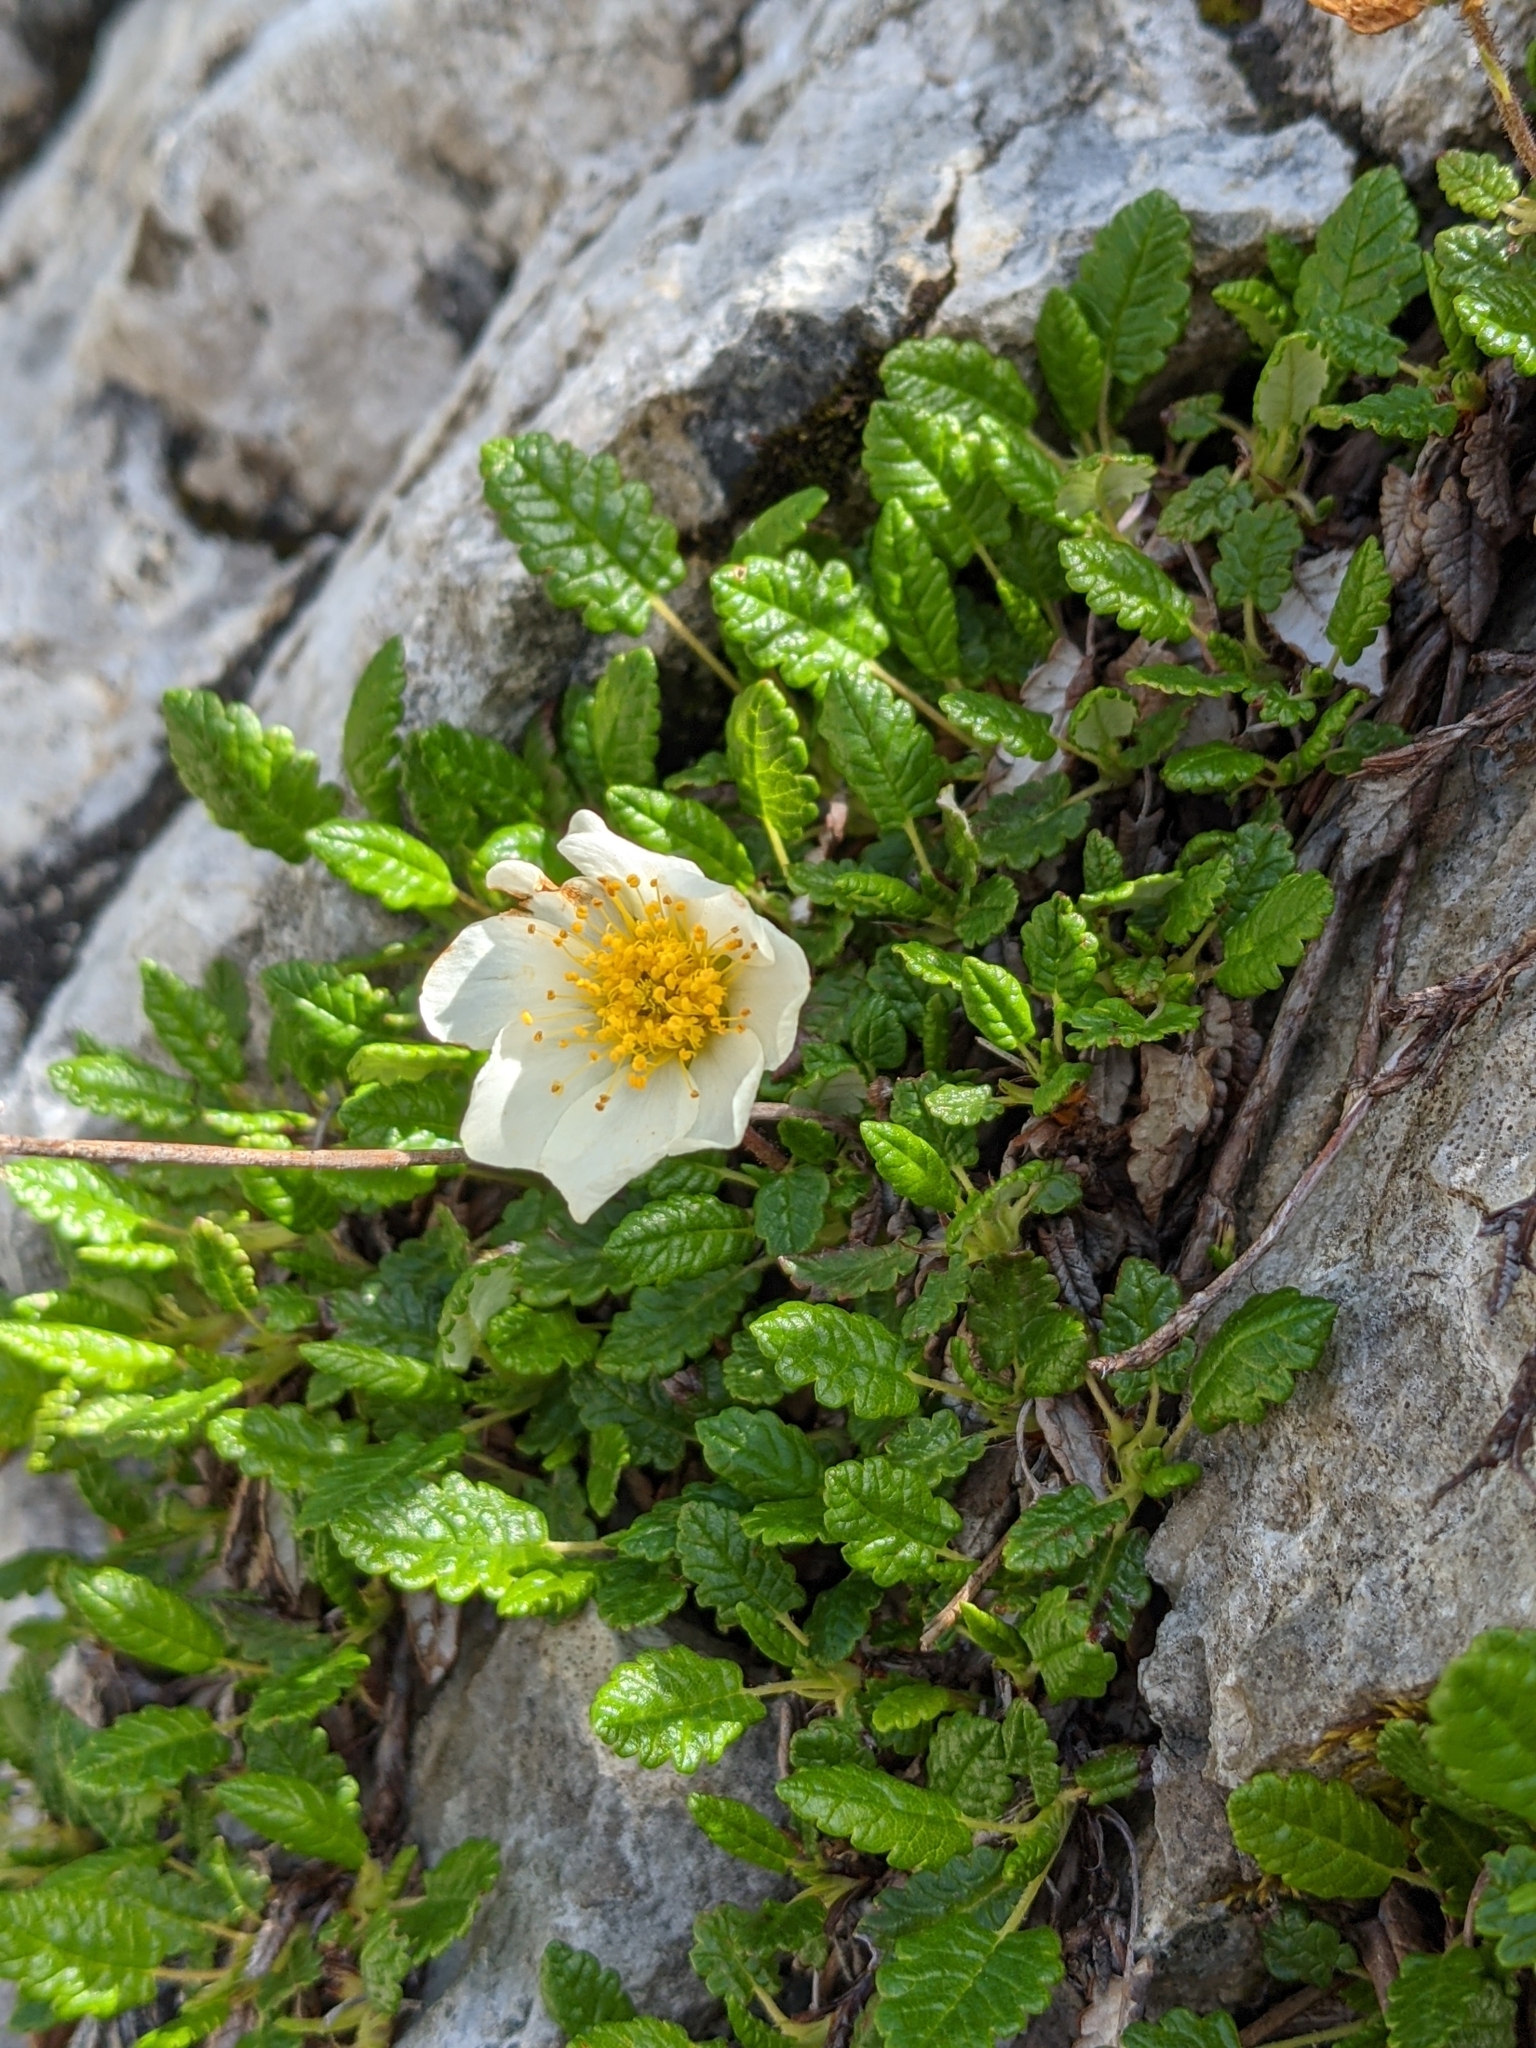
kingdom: Plantae
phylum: Tracheophyta
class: Magnoliopsida
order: Rosales
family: Rosaceae
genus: Dryas
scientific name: Dryas octopetala
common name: Eight-petal mountain-avens
